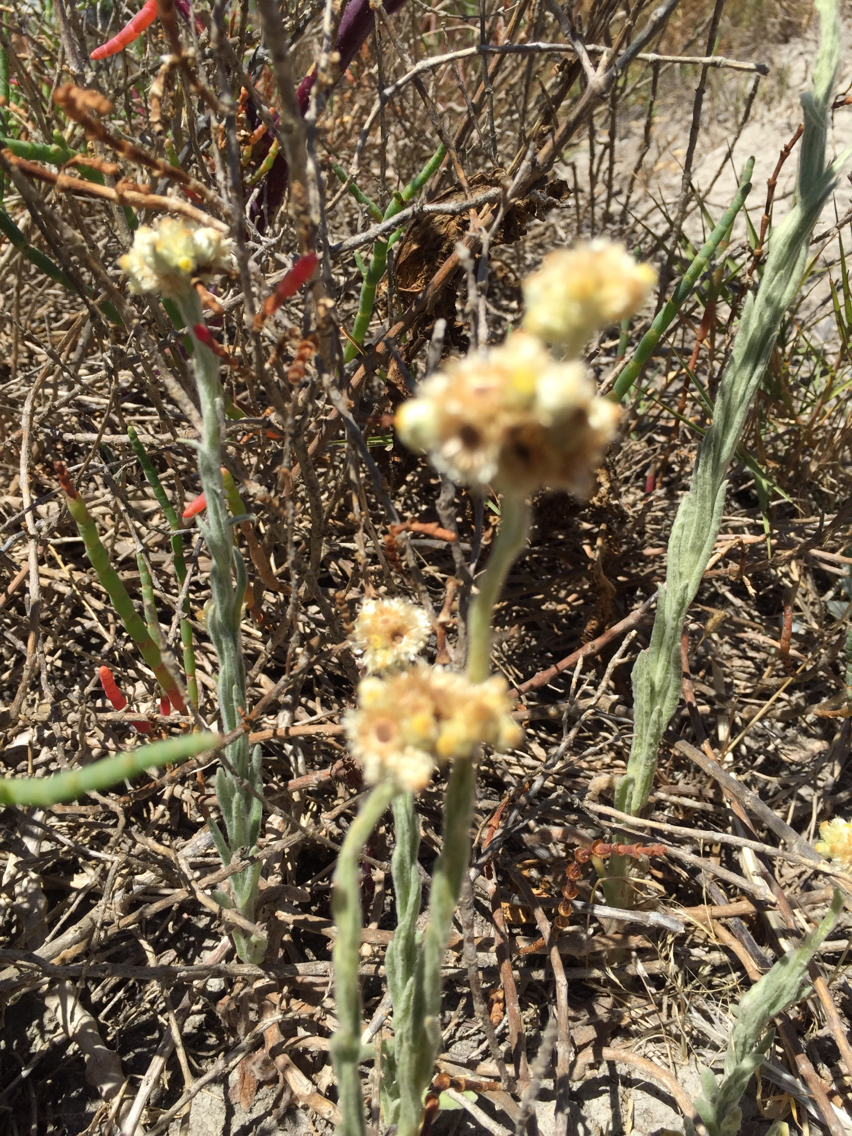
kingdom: Plantae
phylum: Tracheophyta
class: Magnoliopsida
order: Asterales
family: Asteraceae
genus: Helichrysum
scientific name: Helichrysum luteoalbum
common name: Daisy
